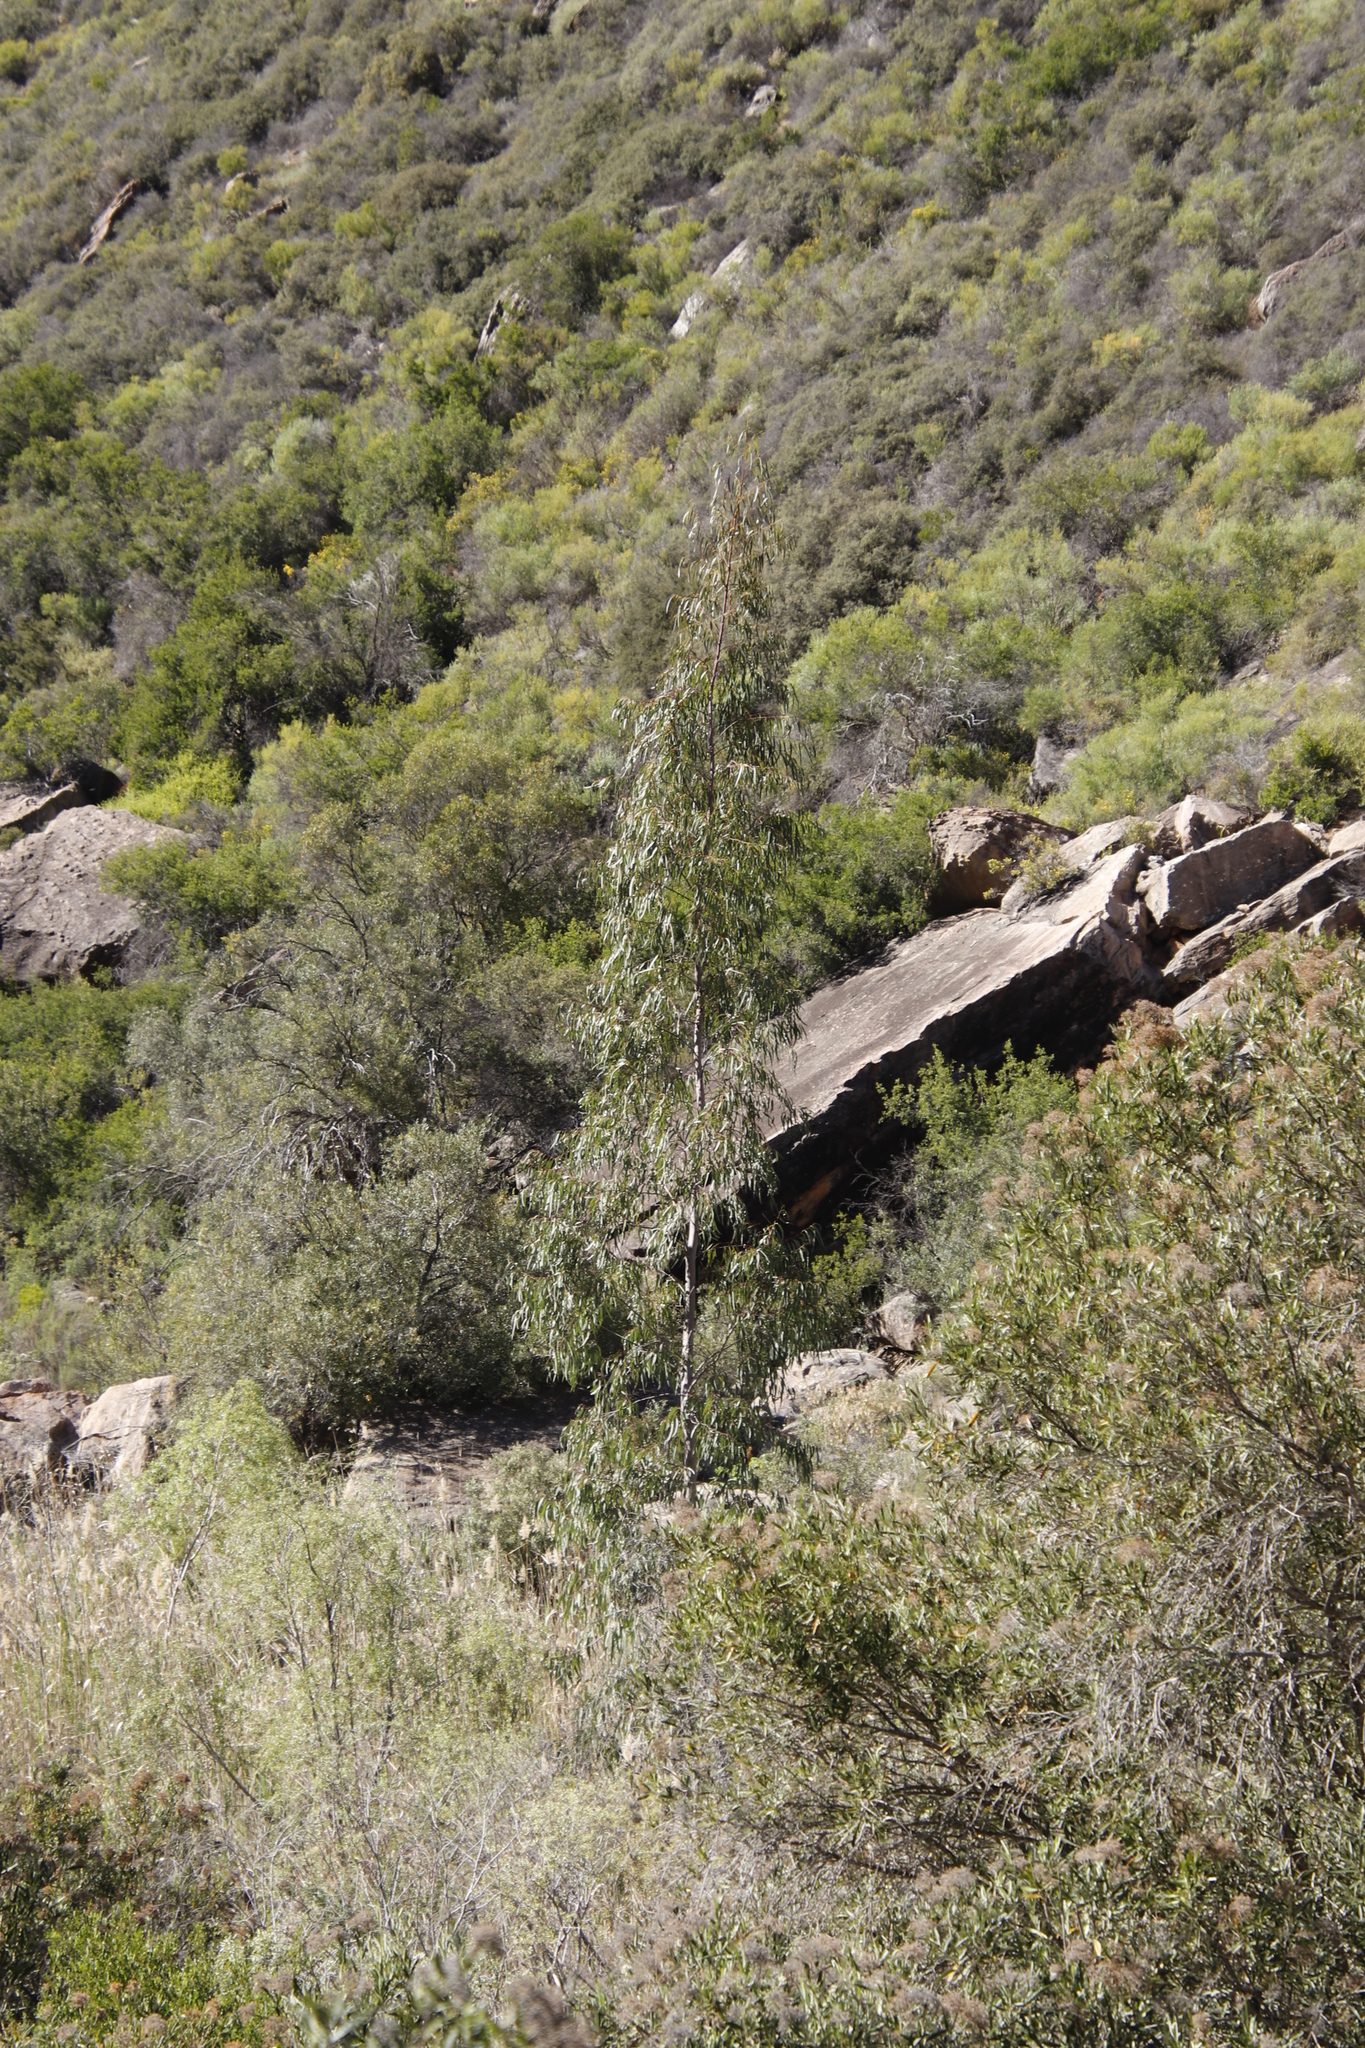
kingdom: Plantae
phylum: Tracheophyta
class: Magnoliopsida
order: Myrtales
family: Myrtaceae
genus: Eucalyptus
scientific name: Eucalyptus camaldulensis
